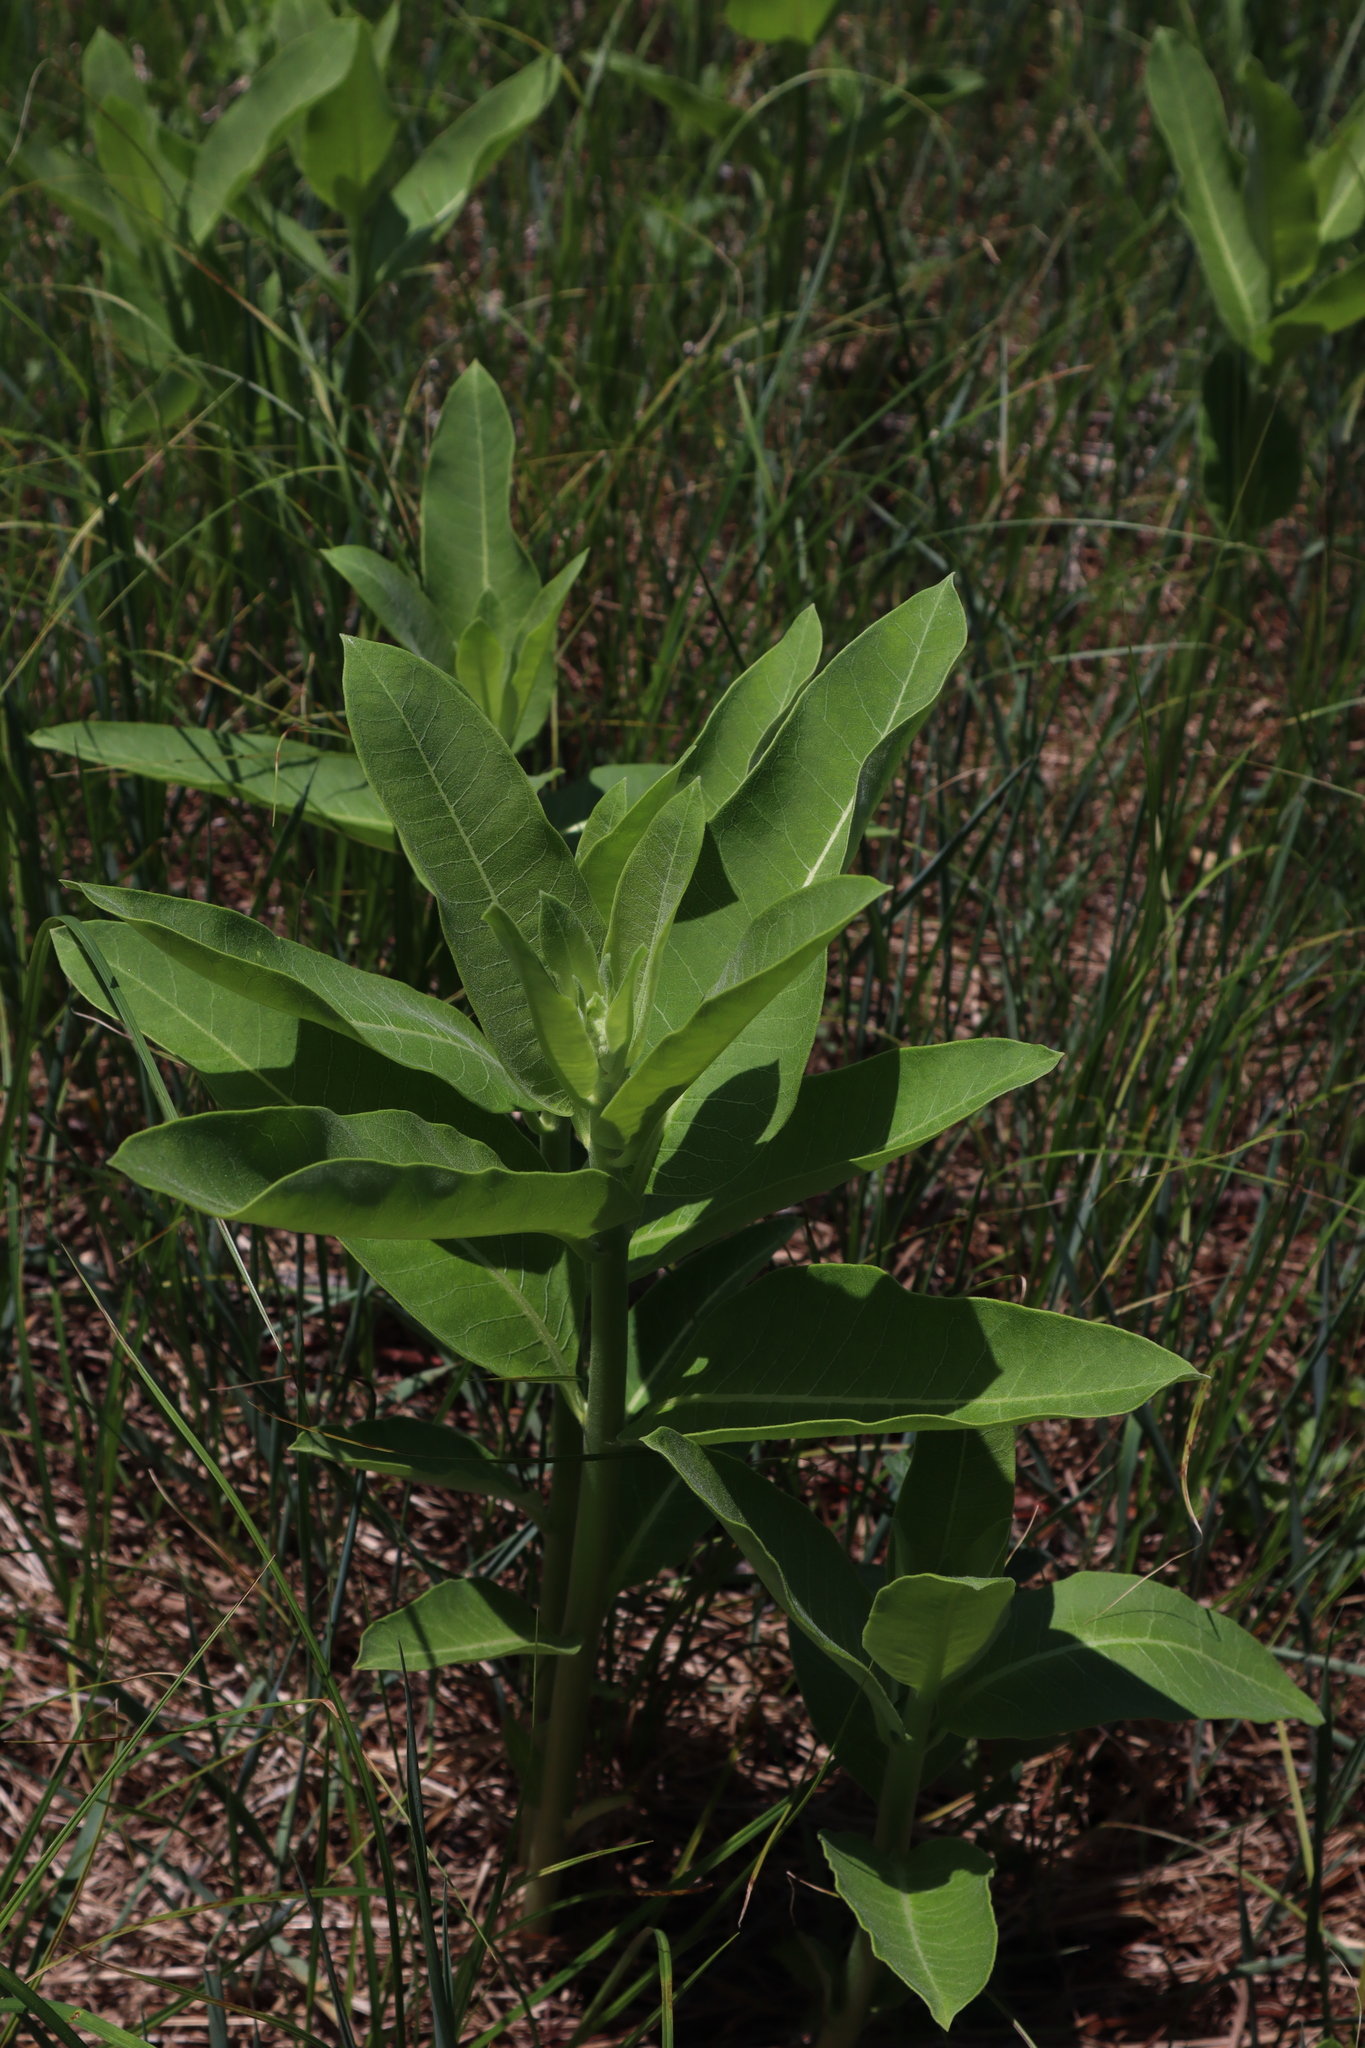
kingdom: Plantae
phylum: Tracheophyta
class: Magnoliopsida
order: Gentianales
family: Apocynaceae
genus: Asclepias
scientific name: Asclepias syriaca
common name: Common milkweed
